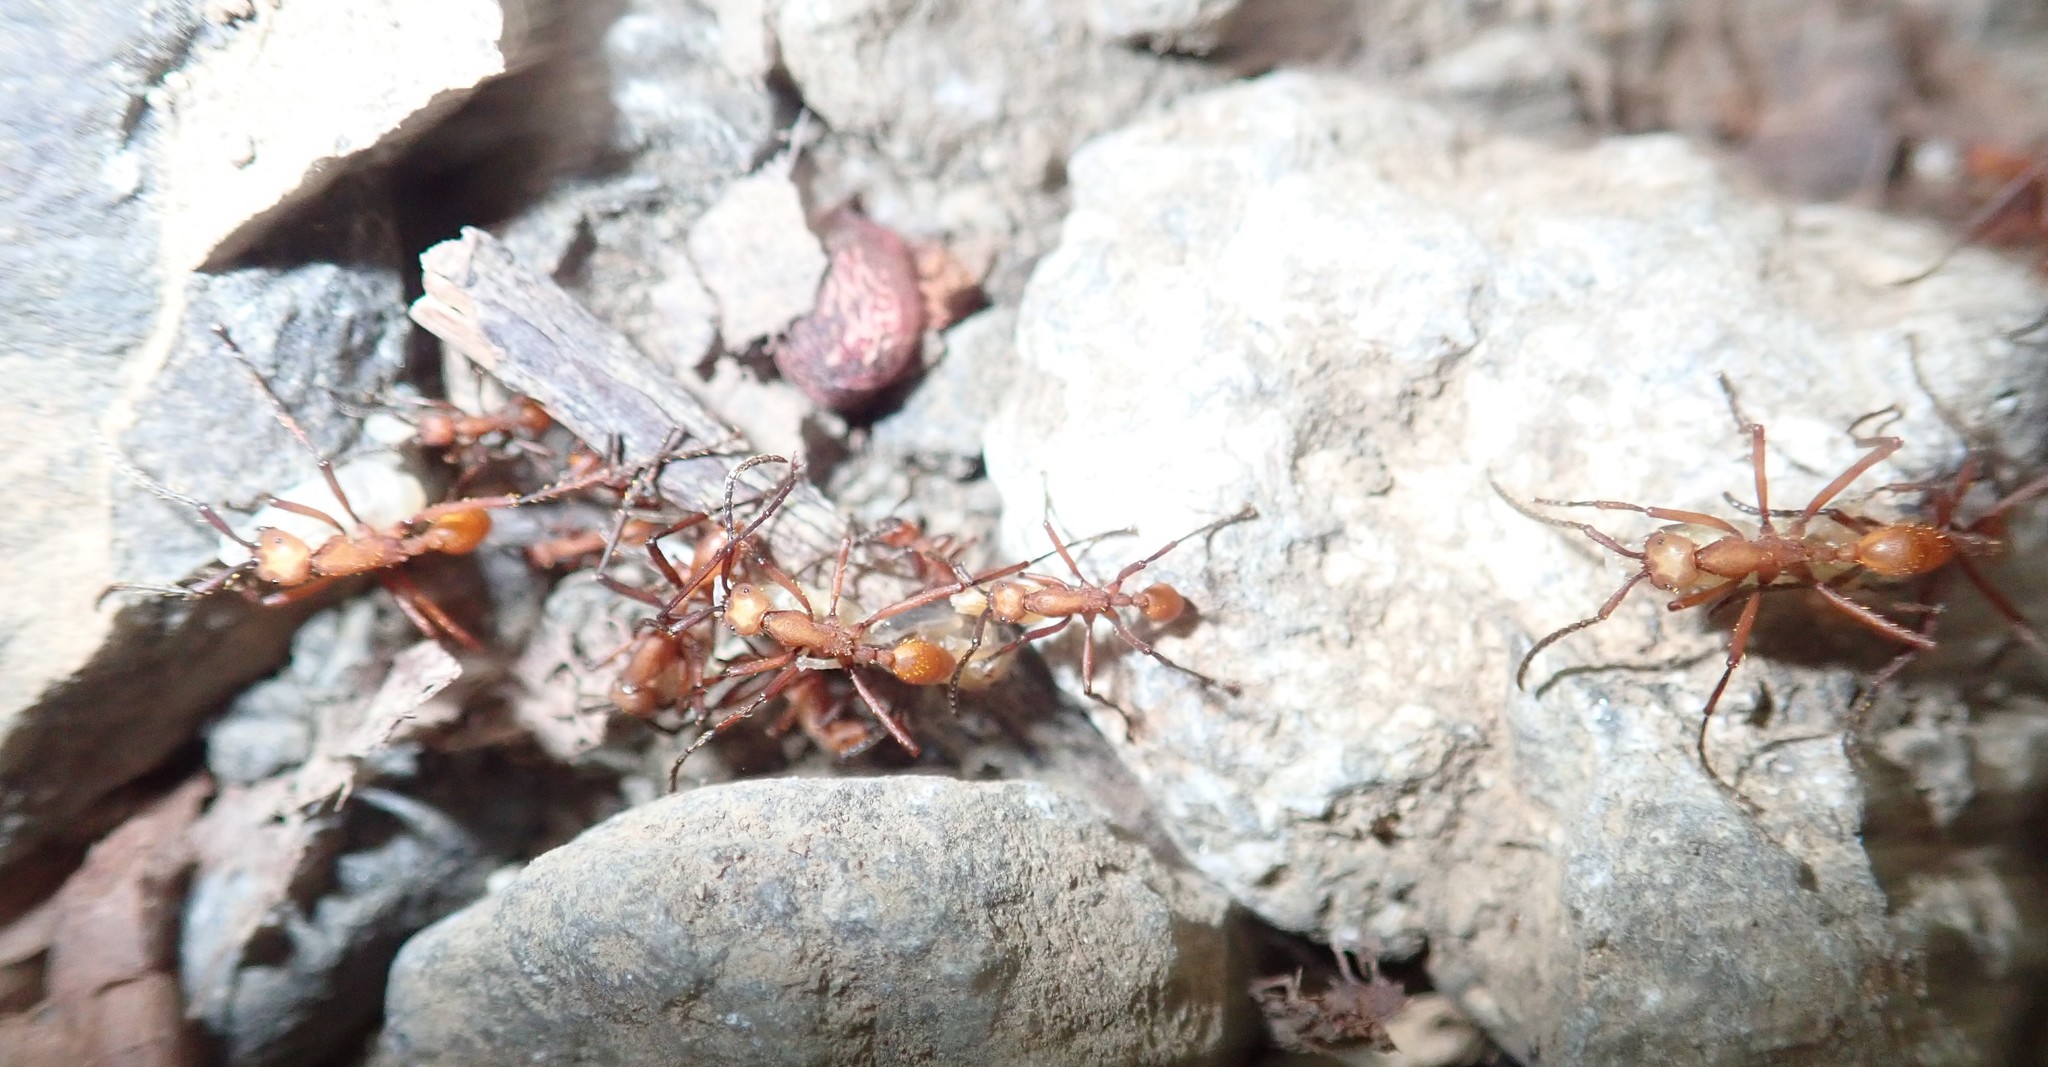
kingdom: Animalia
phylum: Arthropoda
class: Insecta
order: Hymenoptera
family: Formicidae
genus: Eciton
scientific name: Eciton
